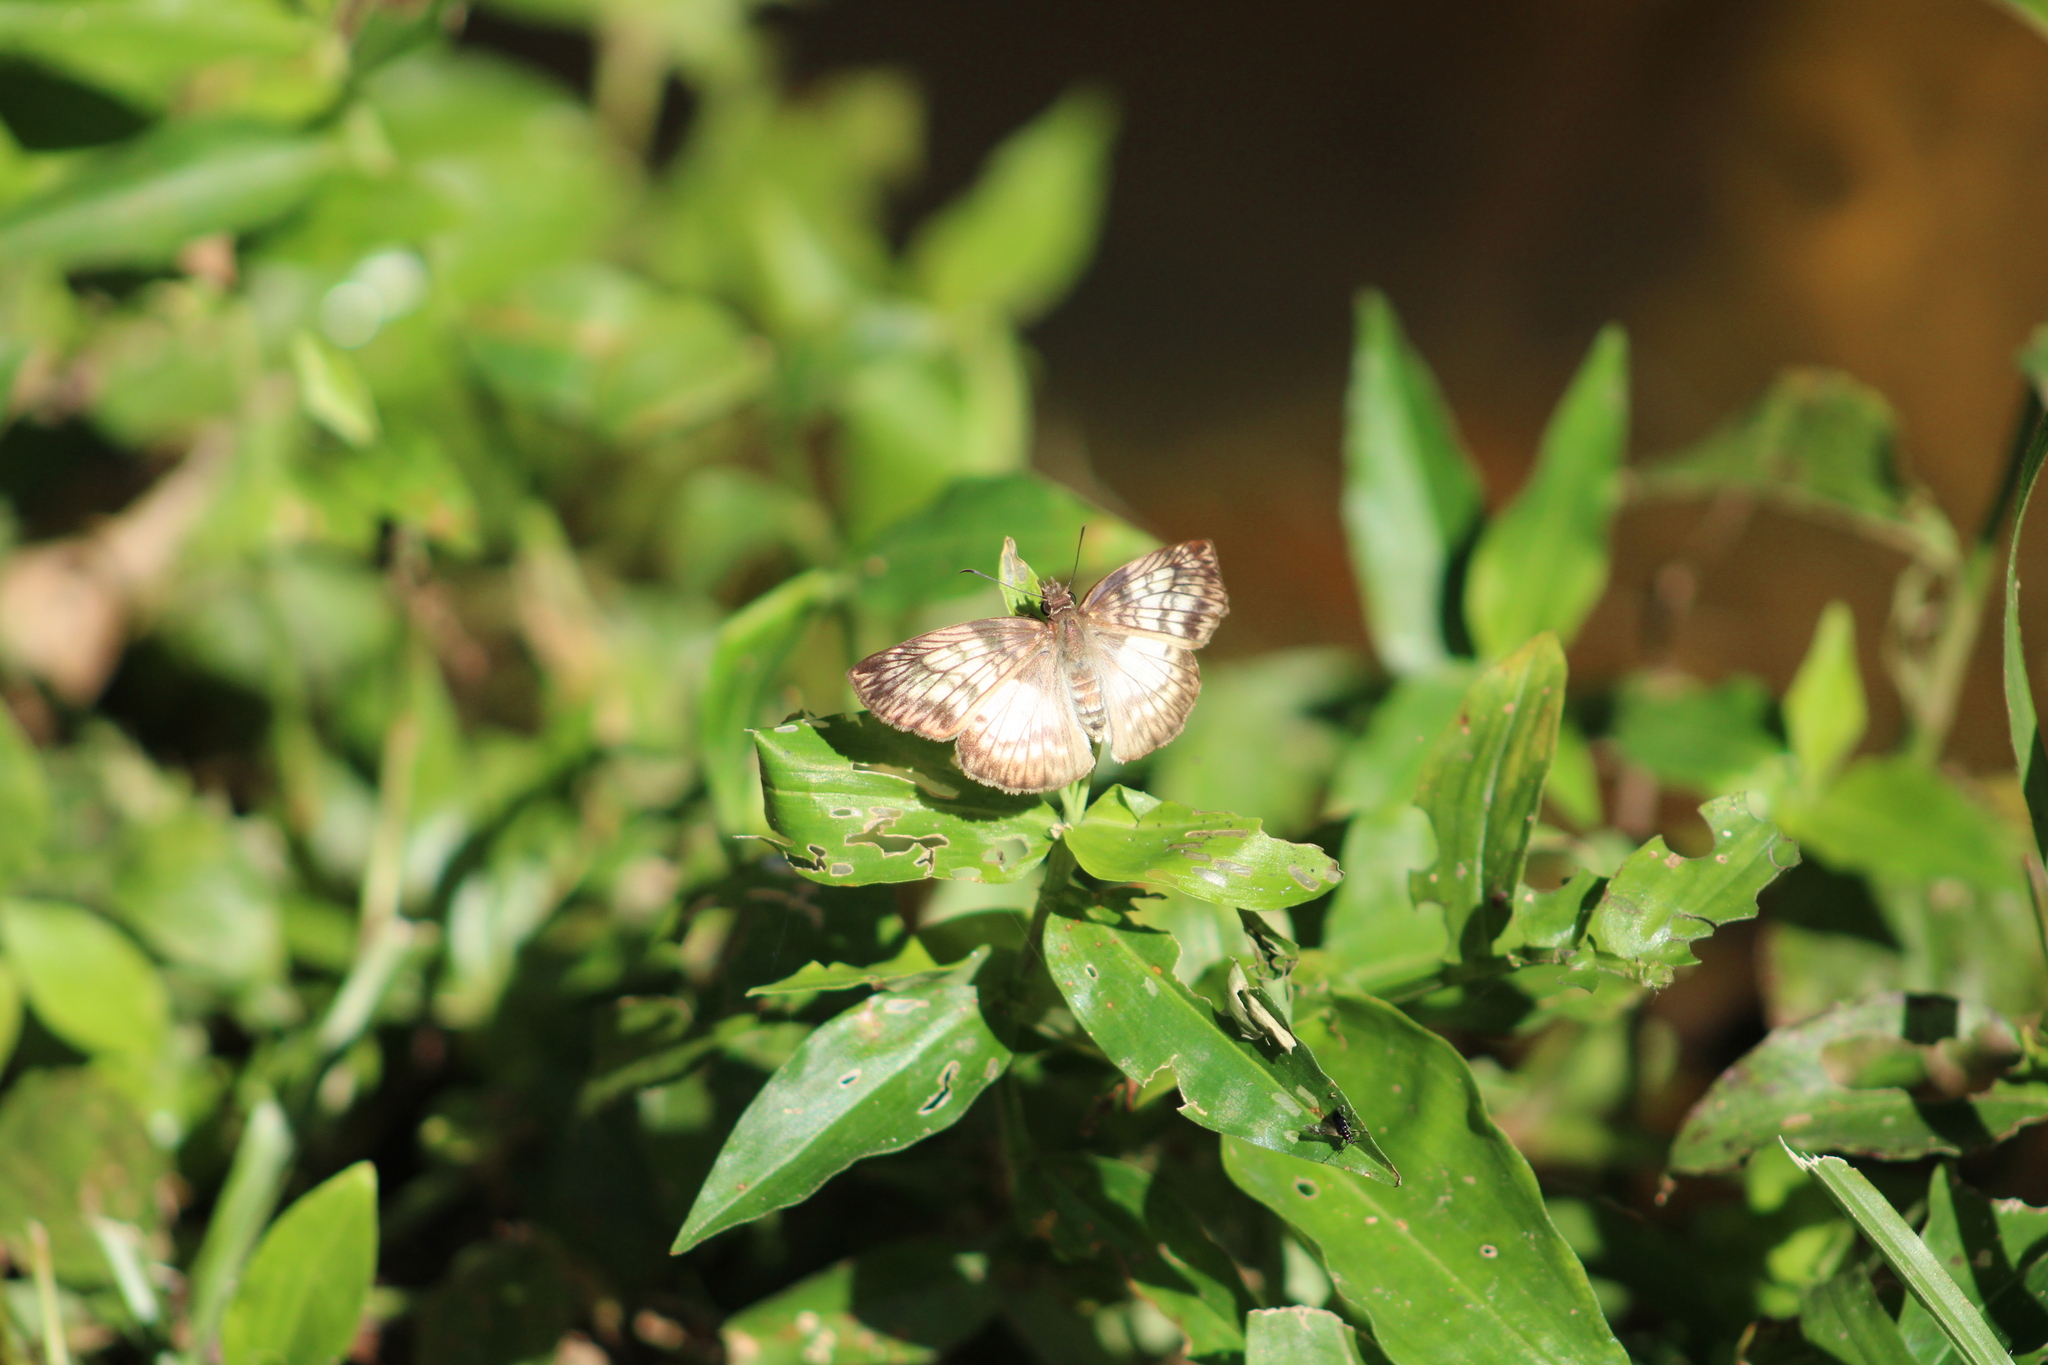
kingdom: Animalia
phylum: Arthropoda
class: Insecta
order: Lepidoptera
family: Hesperiidae
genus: Mylon
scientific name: Mylon maimon
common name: Common mylon
